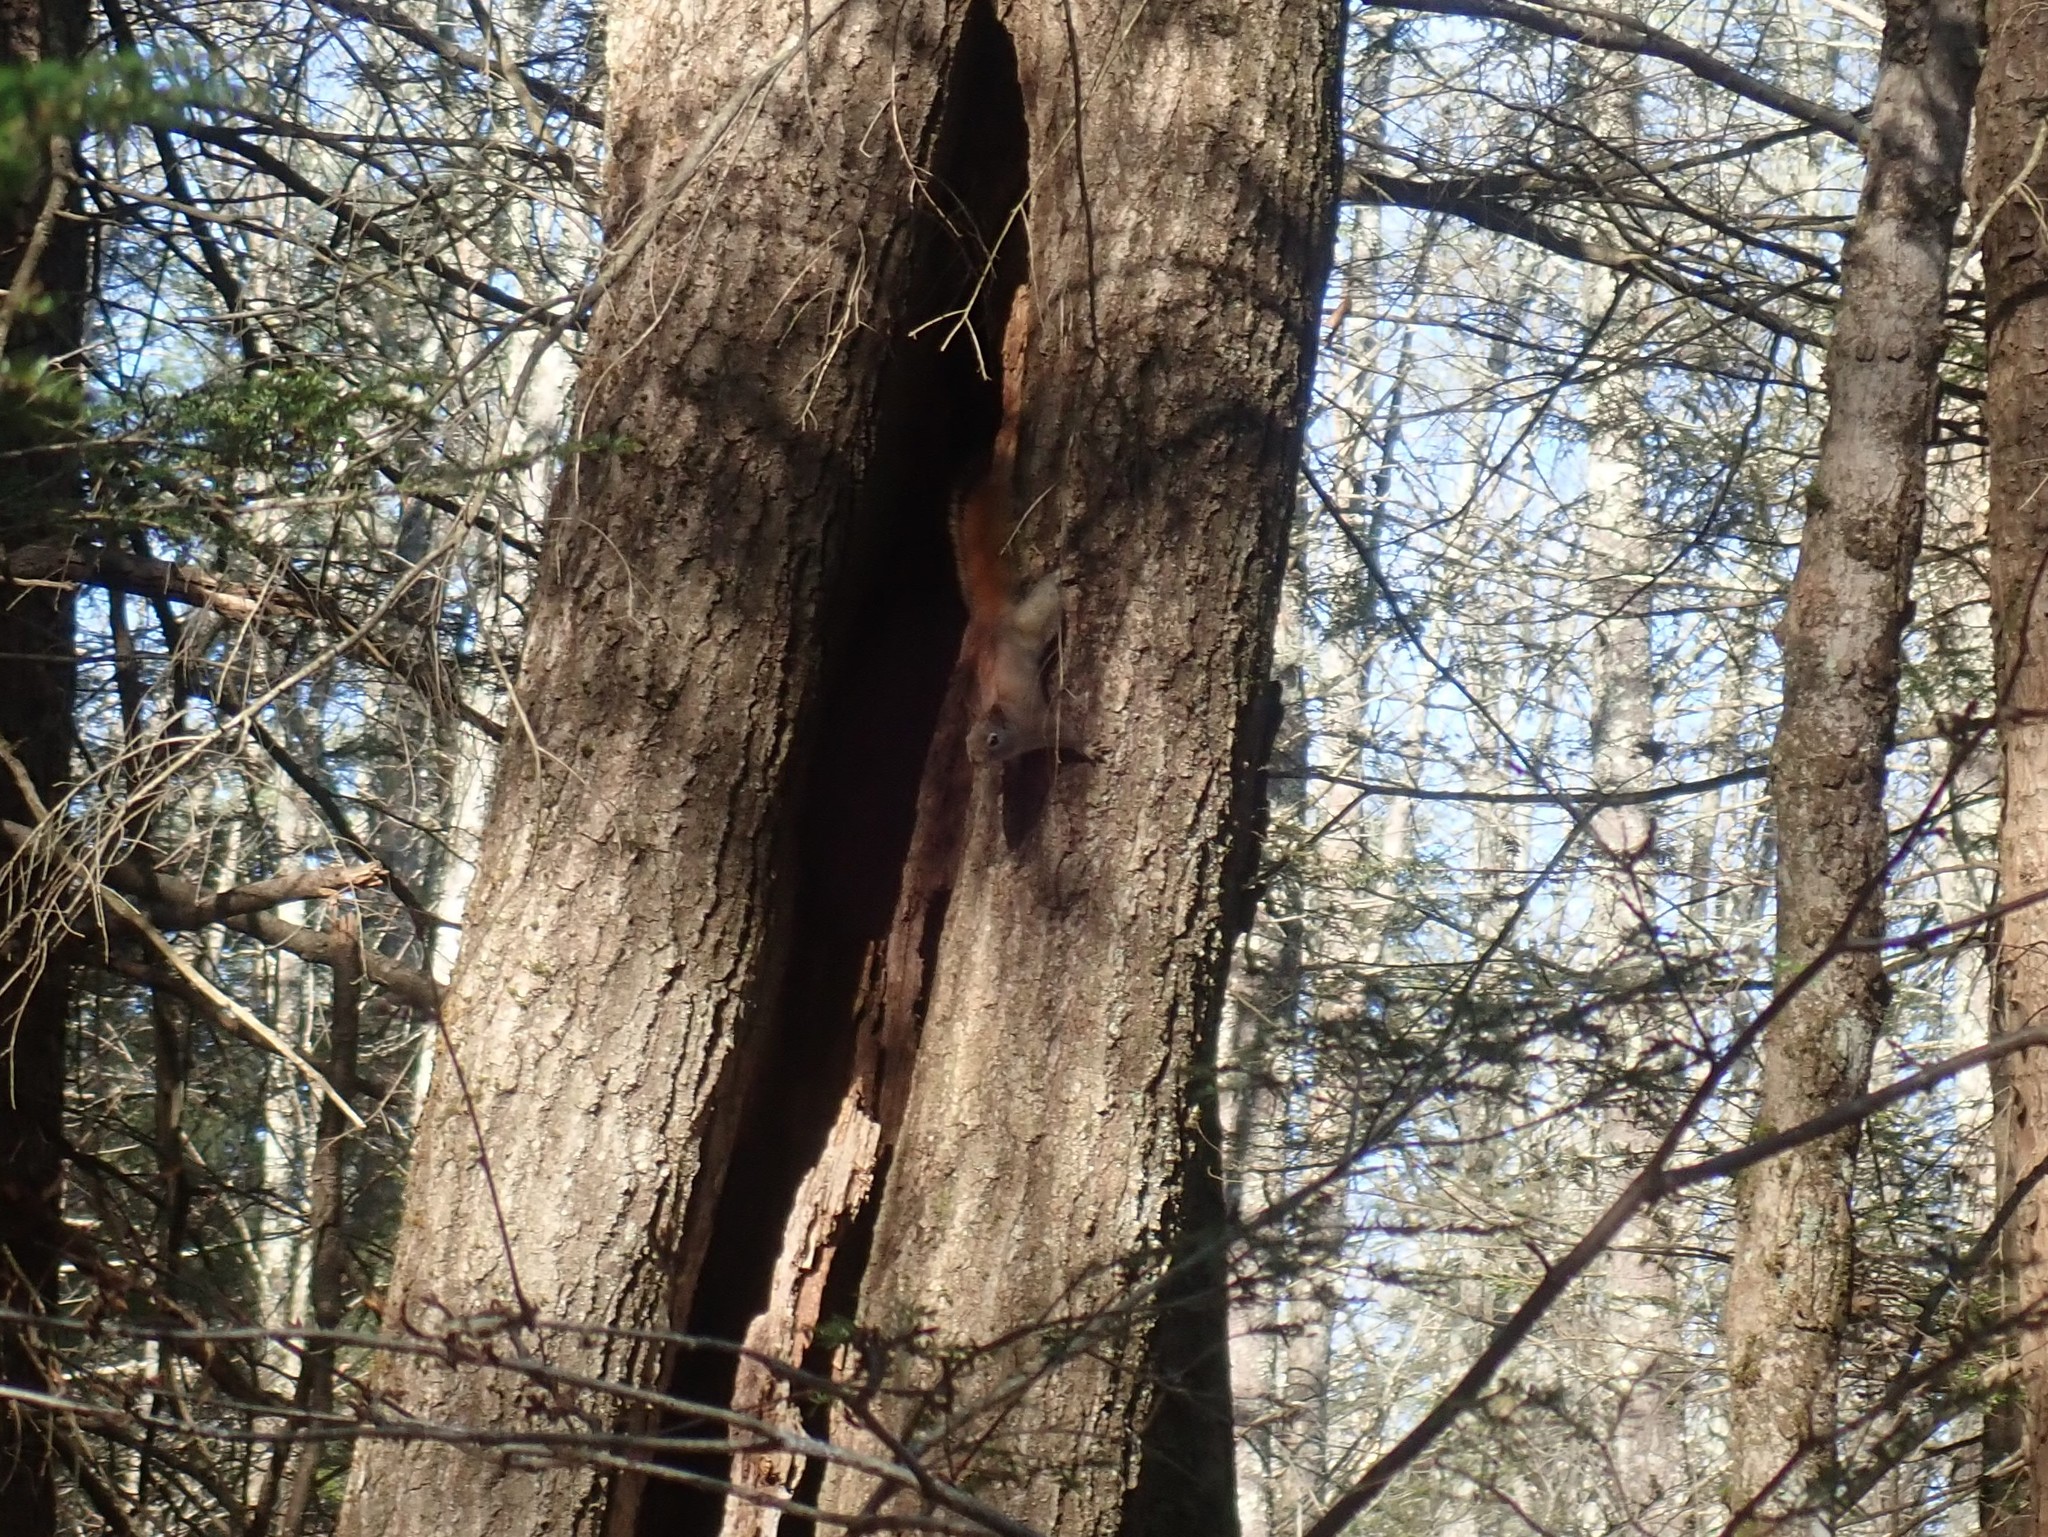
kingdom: Animalia
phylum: Chordata
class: Mammalia
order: Rodentia
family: Sciuridae
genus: Tamiasciurus
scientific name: Tamiasciurus hudsonicus
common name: Red squirrel
